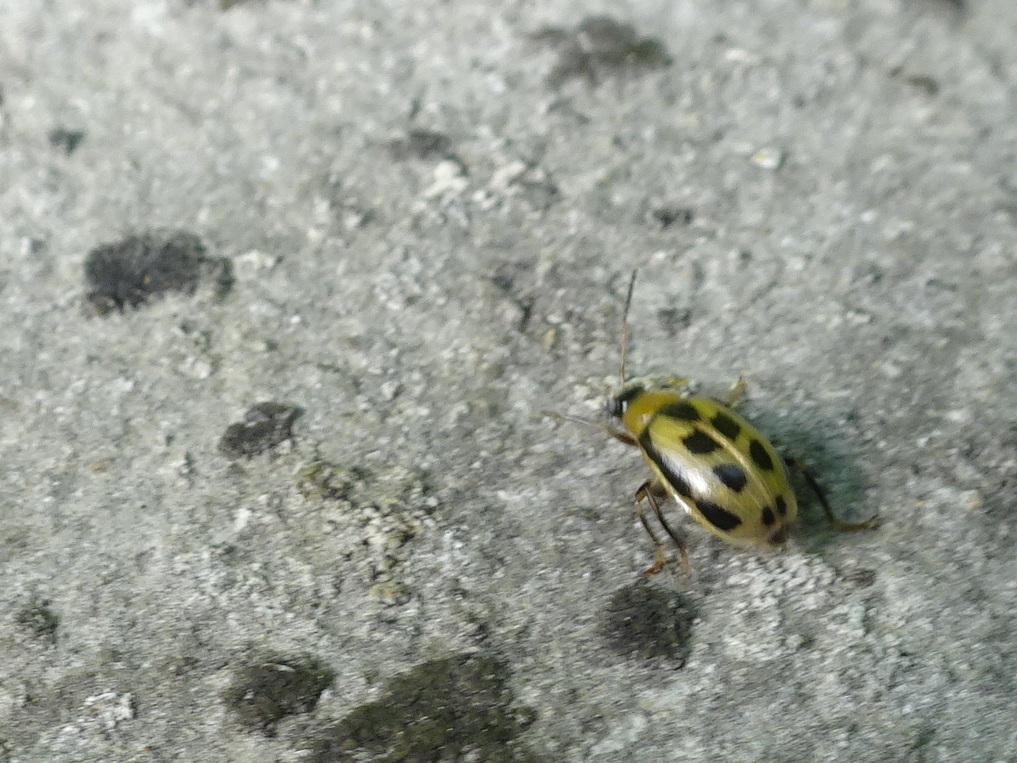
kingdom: Animalia
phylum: Arthropoda
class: Insecta
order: Coleoptera
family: Chrysomelidae
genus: Cerotoma
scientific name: Cerotoma trifurcata
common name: Bean leaf beetle
